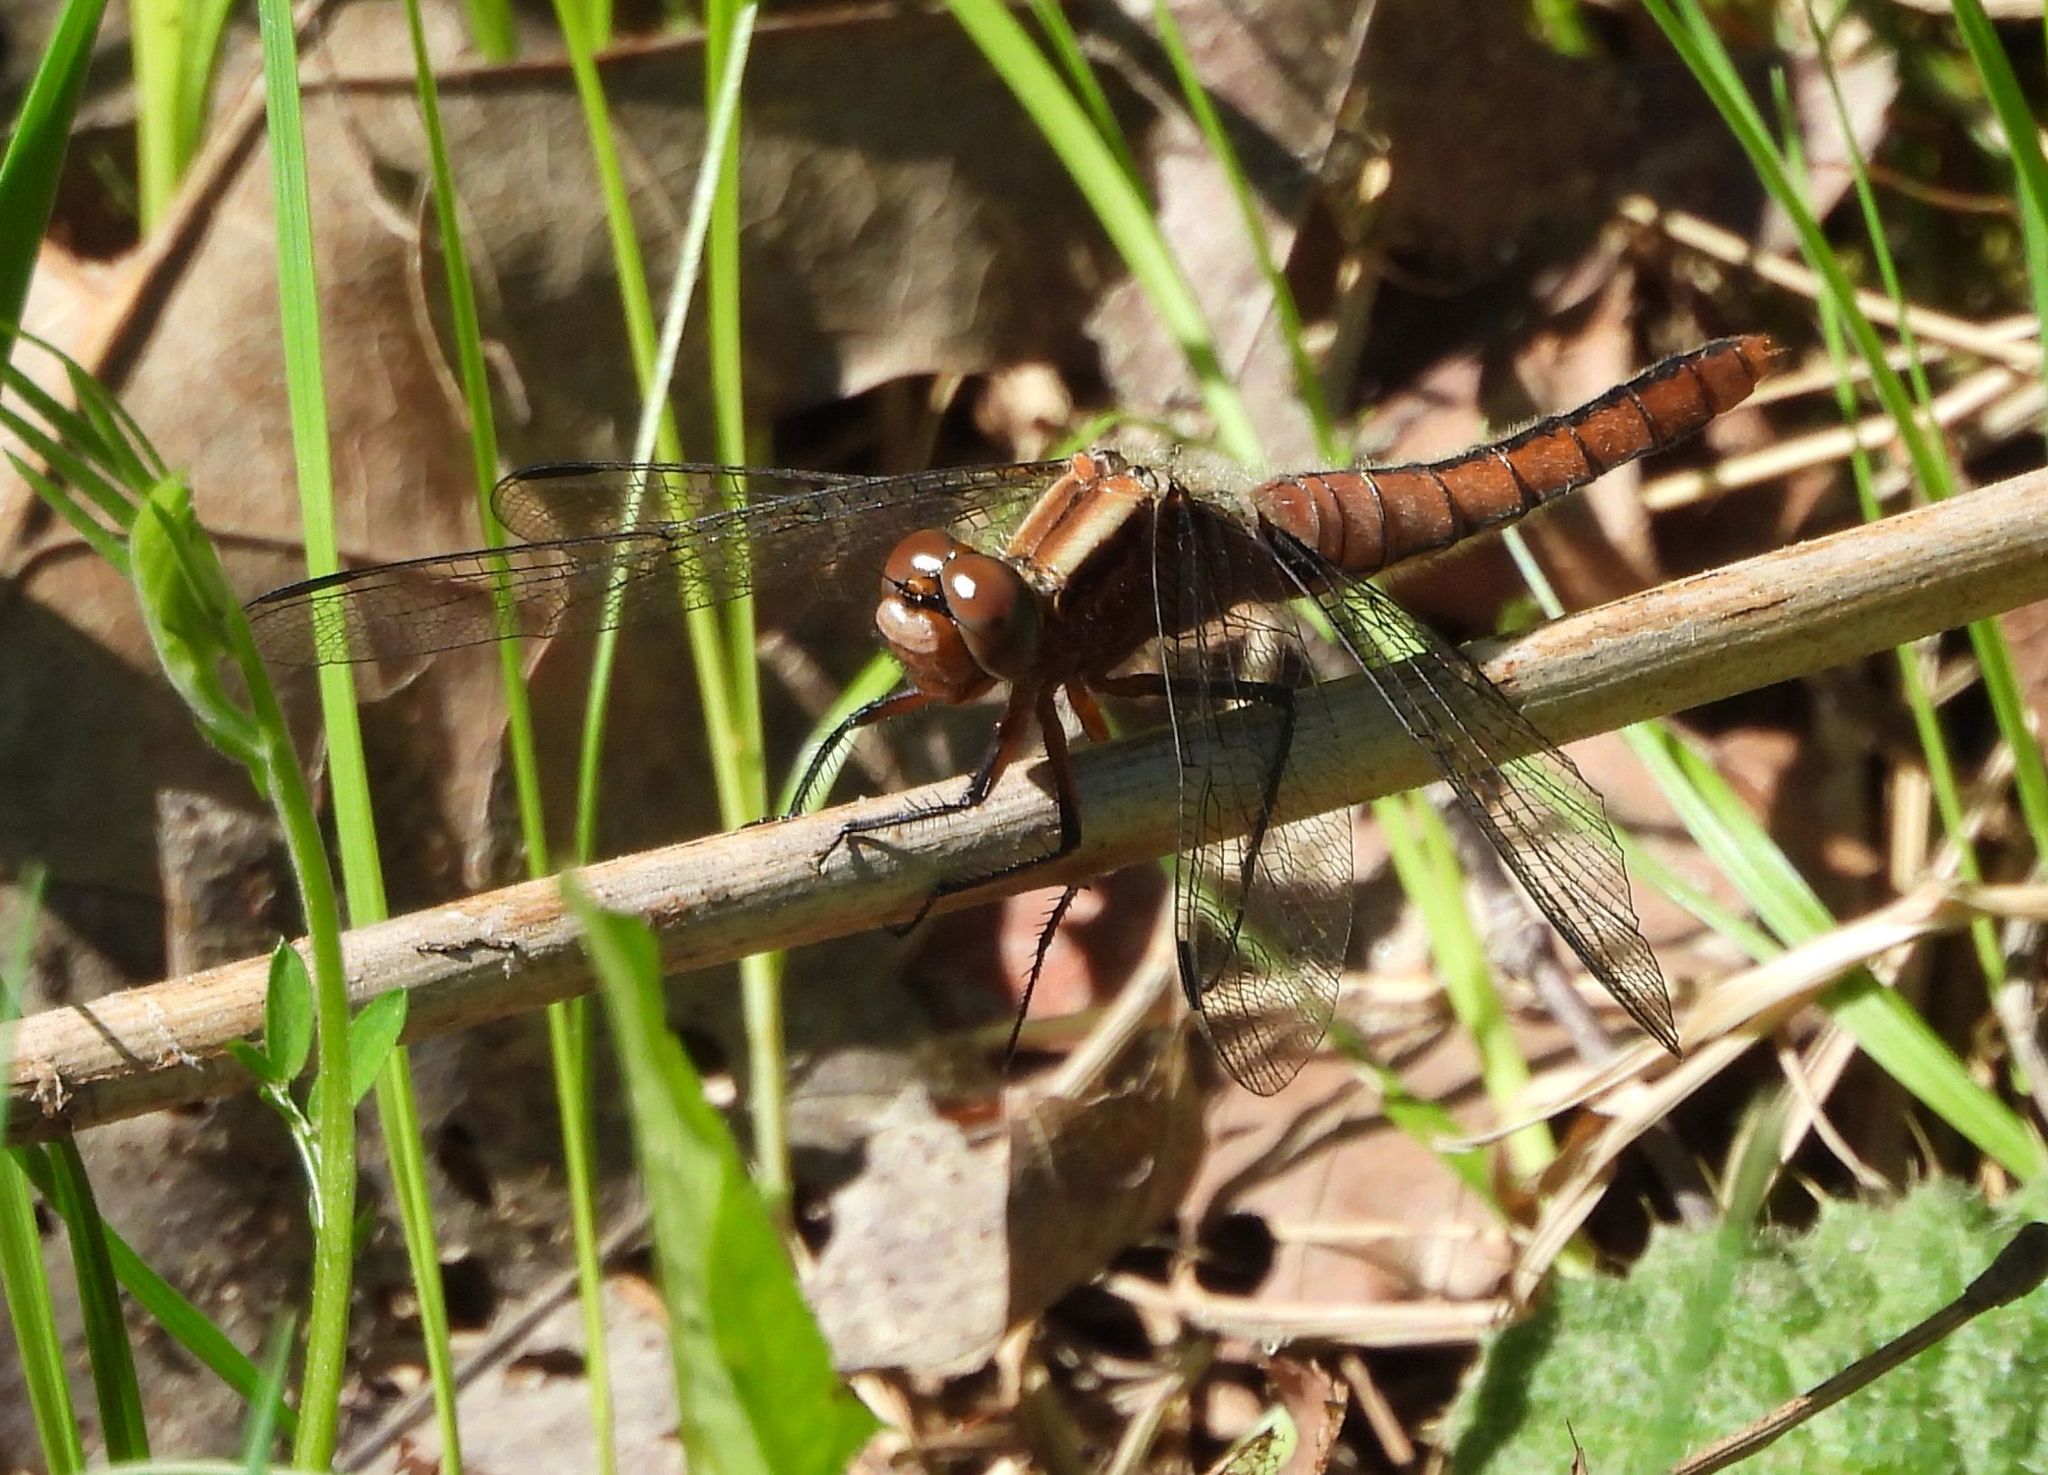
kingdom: Animalia
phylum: Arthropoda
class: Insecta
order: Odonata
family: Libellulidae
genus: Ladona
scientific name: Ladona julia
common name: Chalk-fronted corporal
